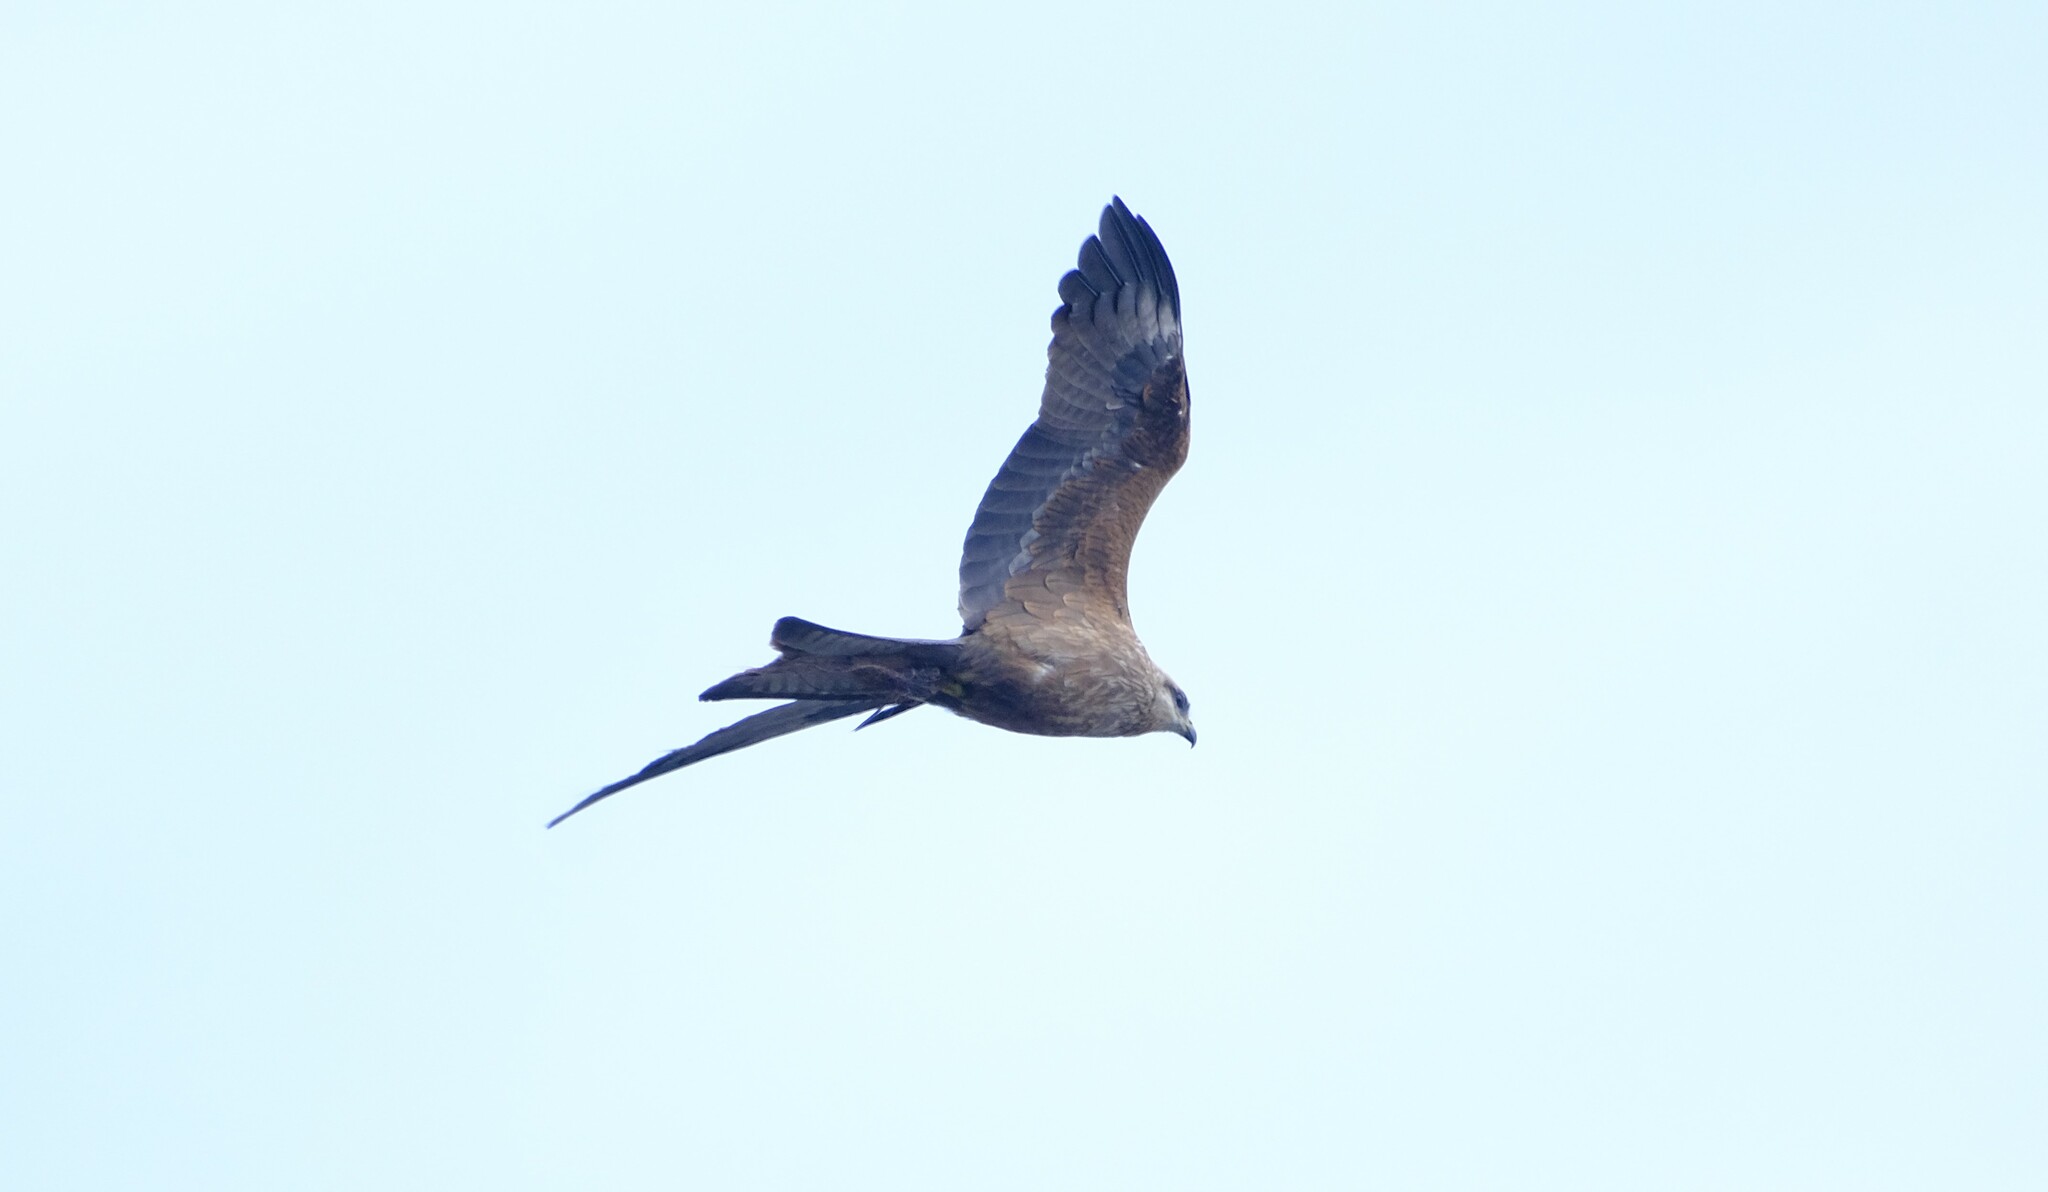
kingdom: Animalia
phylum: Chordata
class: Aves
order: Accipitriformes
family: Accipitridae
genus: Milvus
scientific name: Milvus migrans
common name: Black kite
